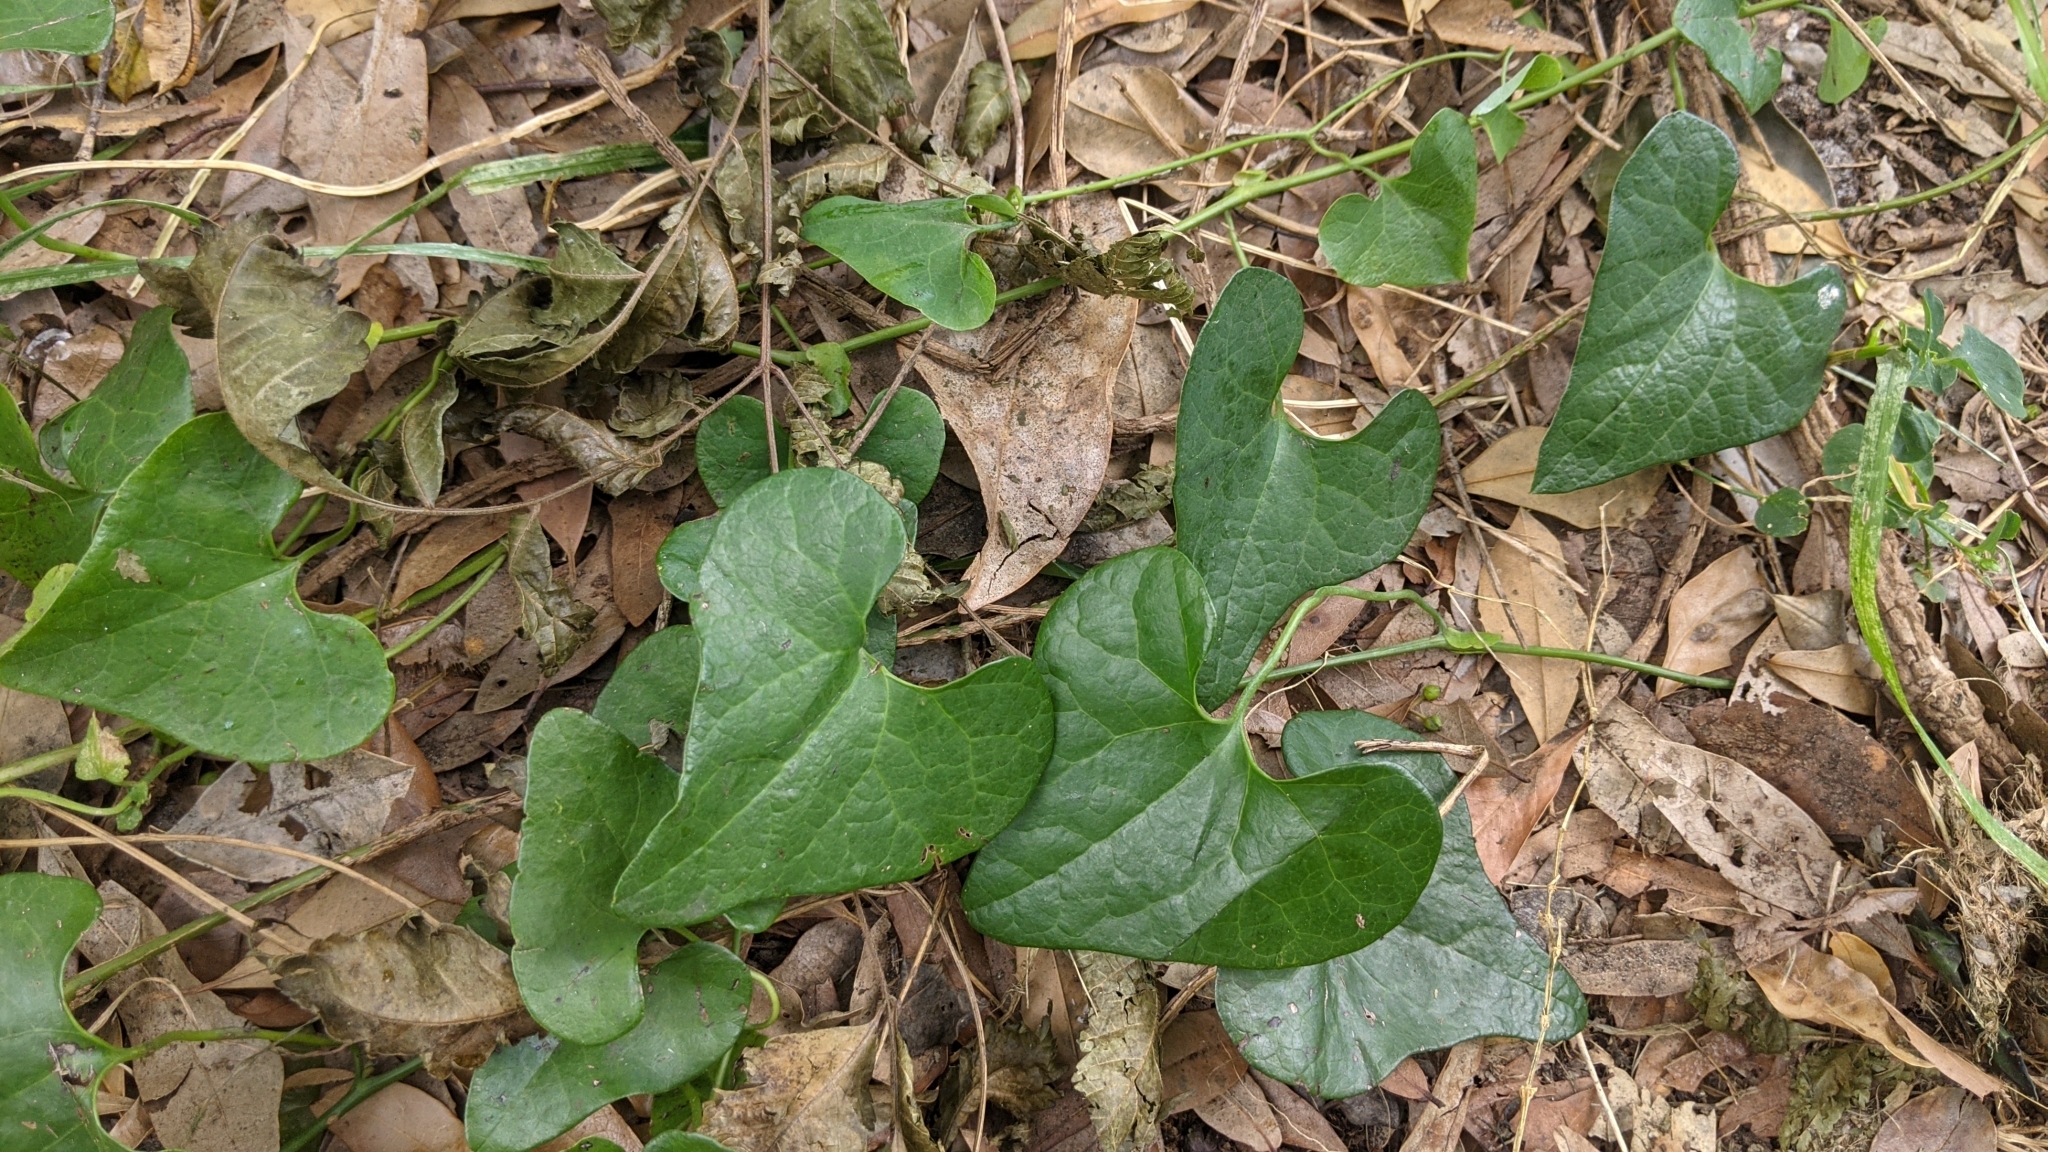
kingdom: Plantae
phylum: Tracheophyta
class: Magnoliopsida
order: Piperales
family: Aristolochiaceae
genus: Aristolochia
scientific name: Aristolochia littoralis
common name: Duck
